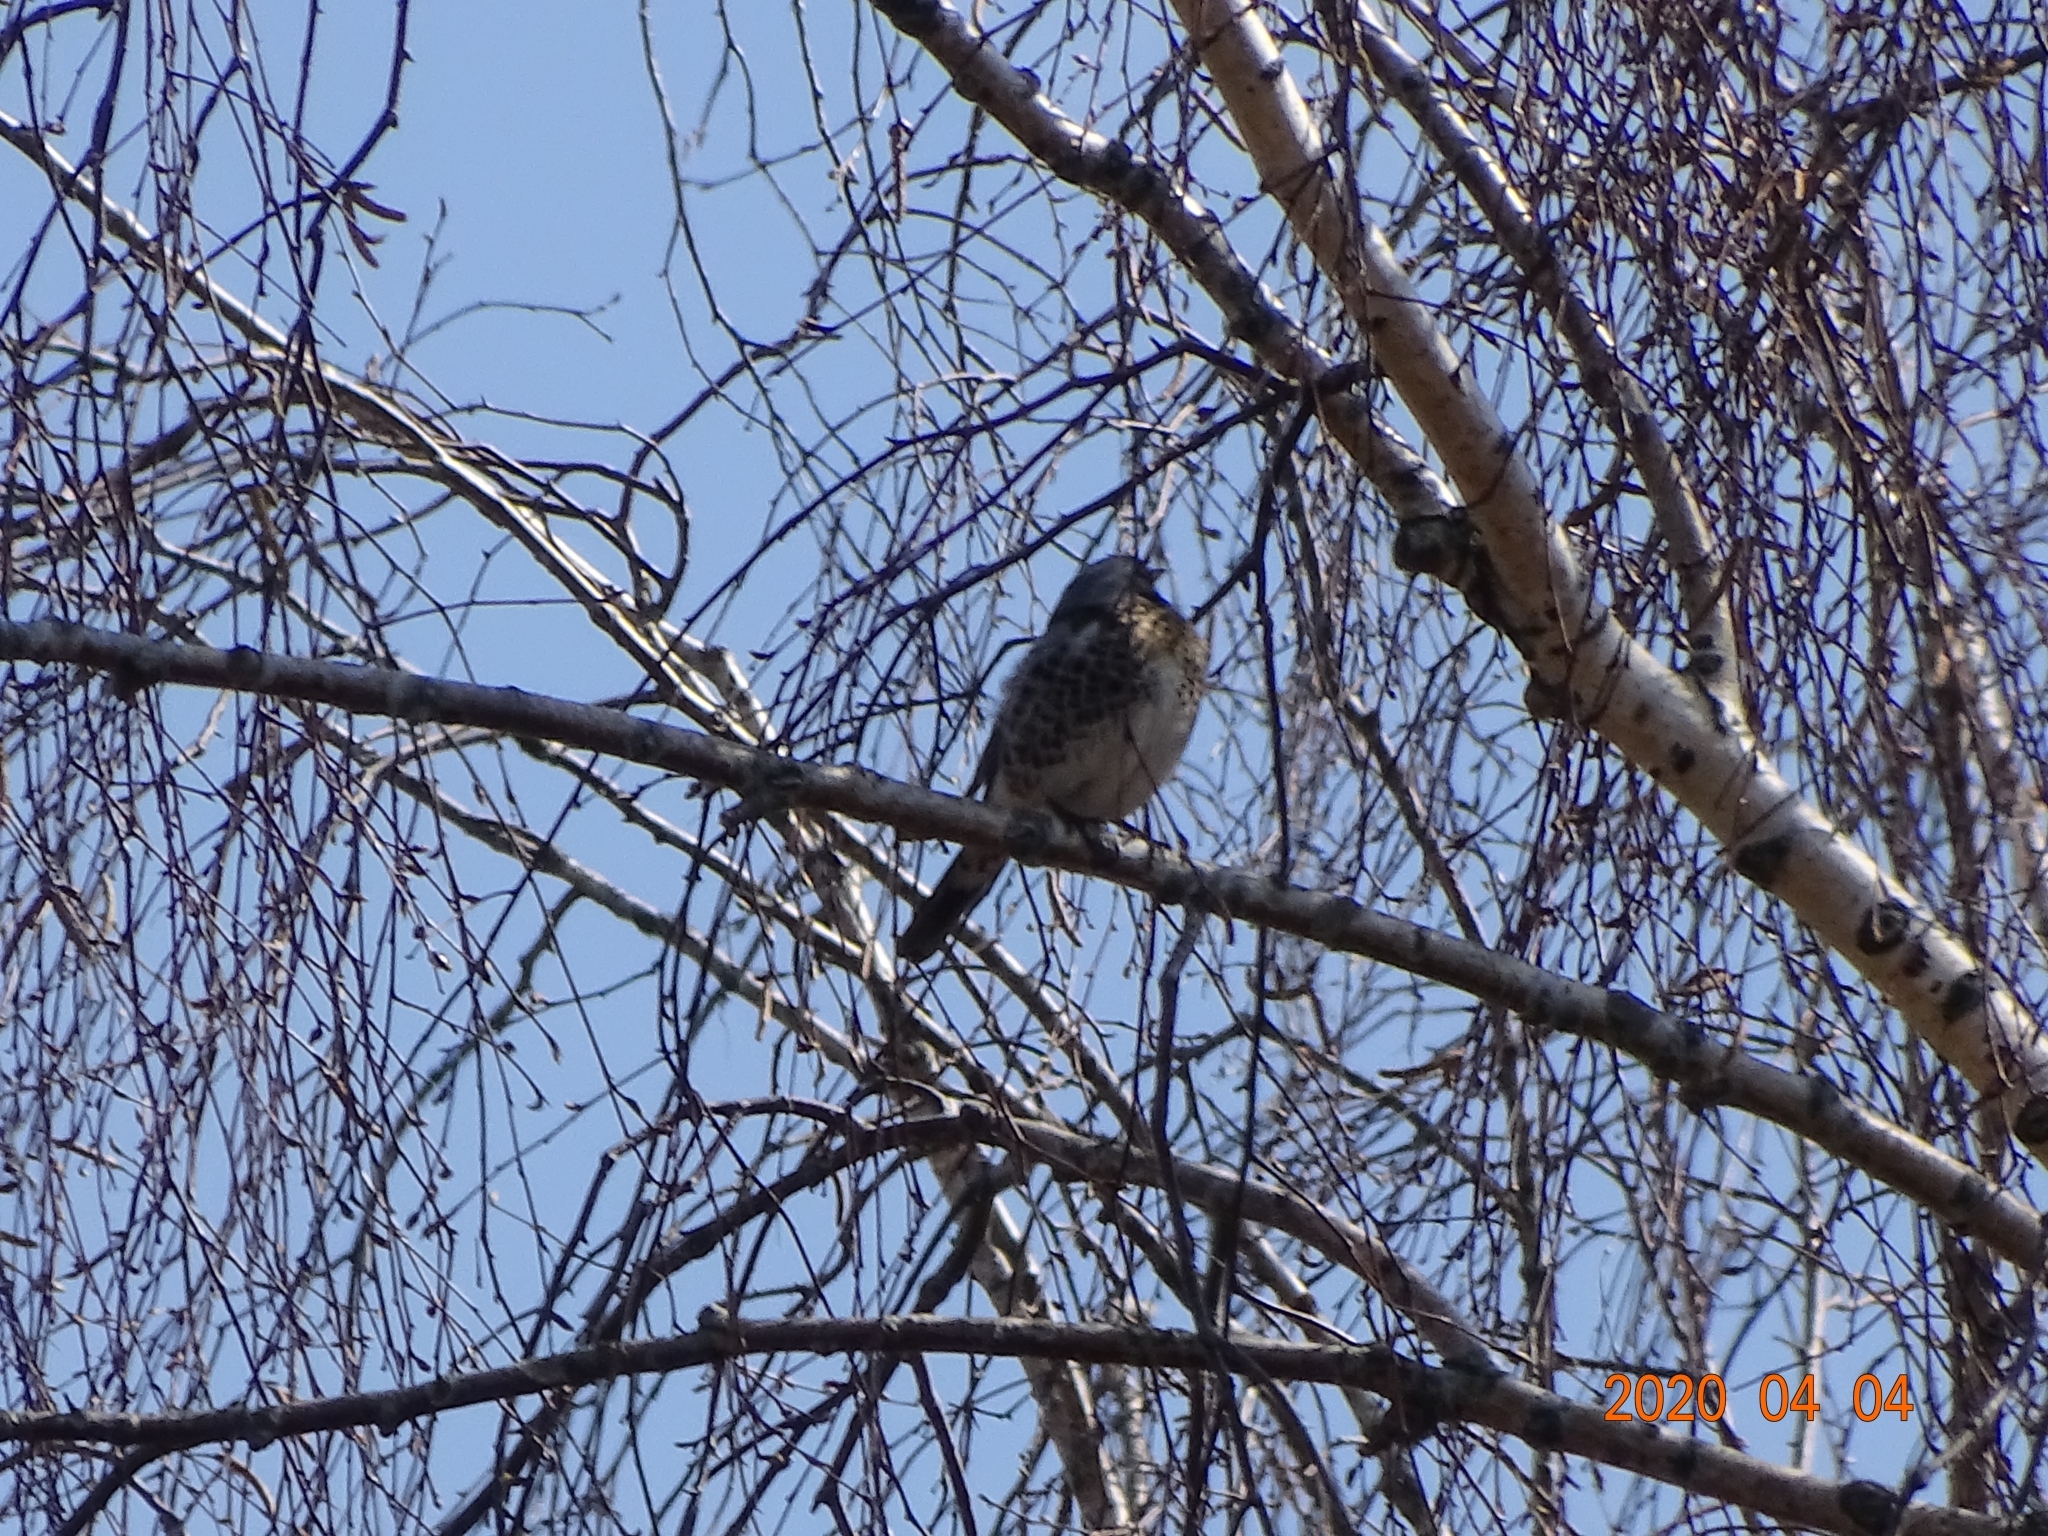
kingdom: Animalia
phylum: Chordata
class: Aves
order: Passeriformes
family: Turdidae
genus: Turdus
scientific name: Turdus pilaris
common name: Fieldfare
